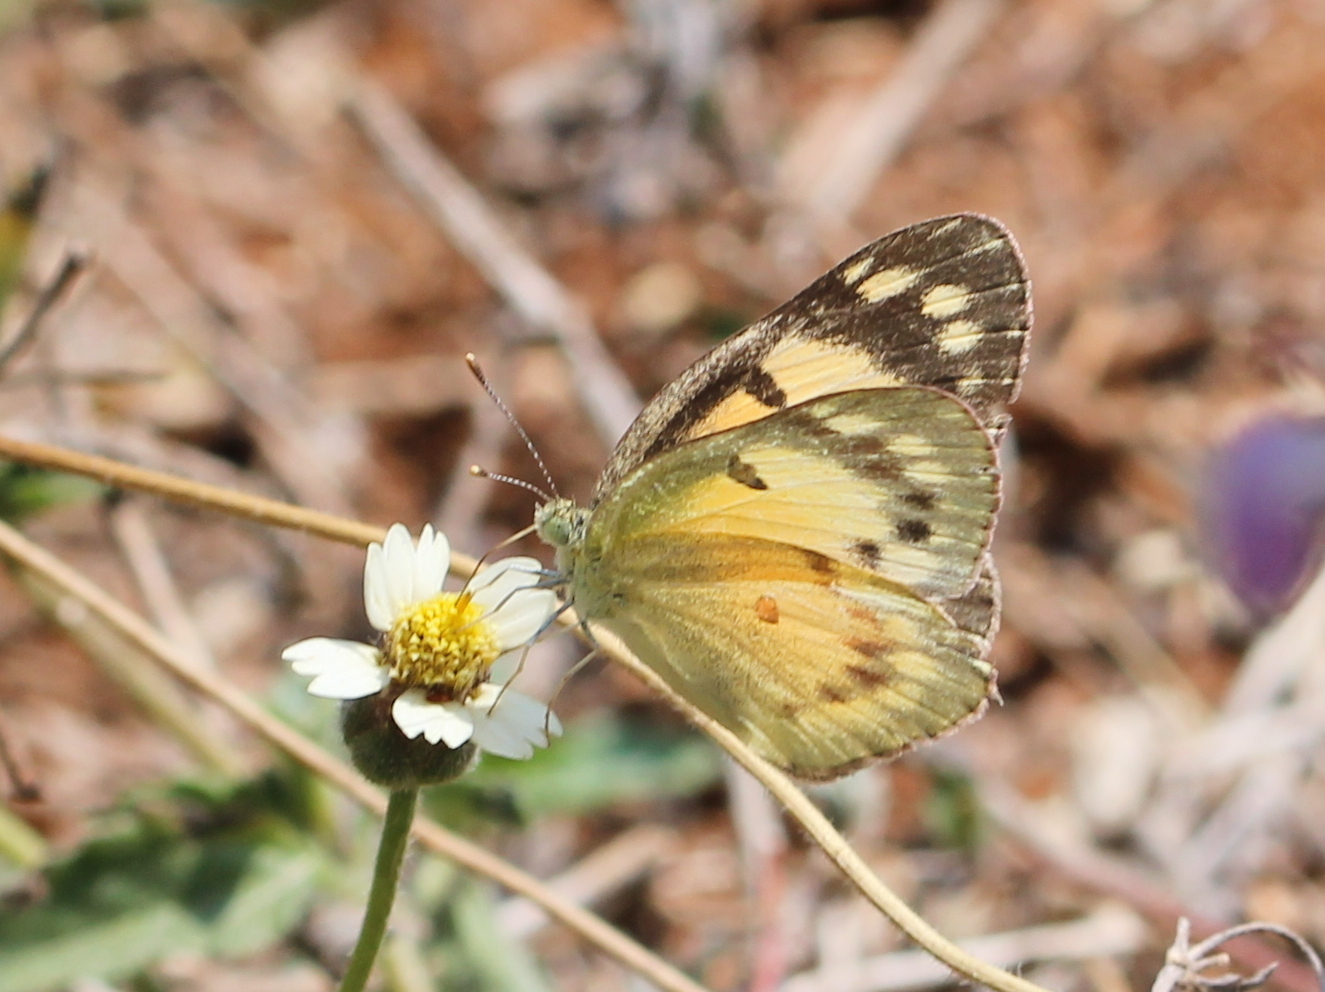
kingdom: Animalia
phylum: Arthropoda
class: Insecta
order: Lepidoptera
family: Pieridae
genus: Colotis
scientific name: Colotis amata
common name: Small salmon arab
